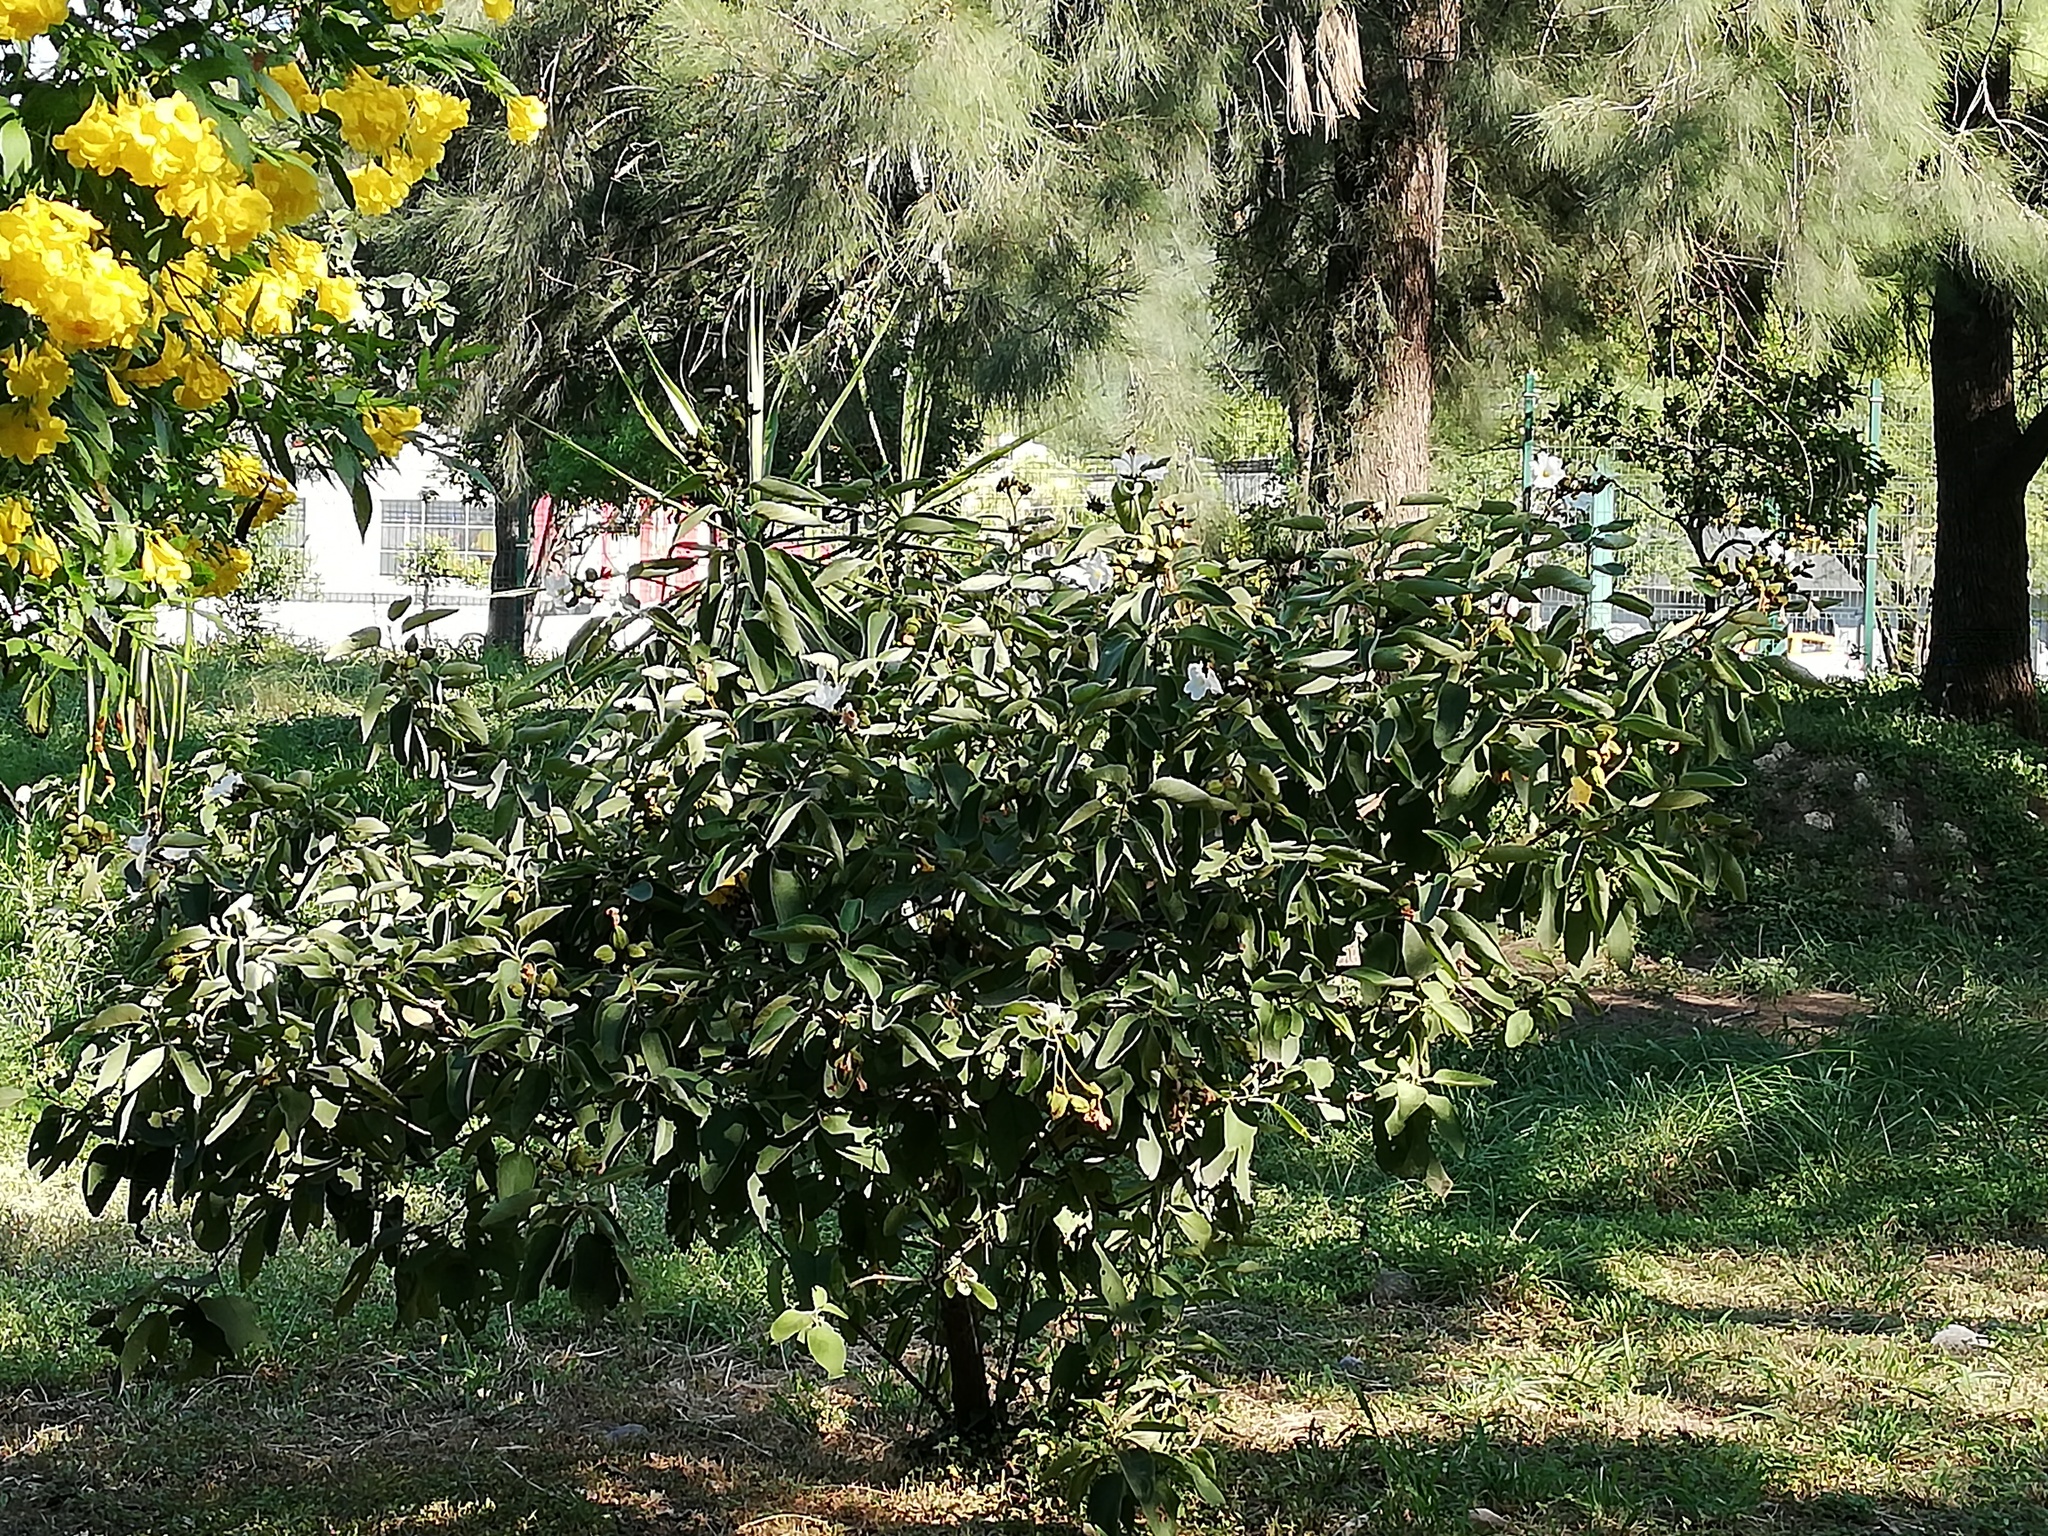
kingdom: Plantae
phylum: Tracheophyta
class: Magnoliopsida
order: Boraginales
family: Cordiaceae
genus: Cordia
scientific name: Cordia boissieri
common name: Mexican-olive
